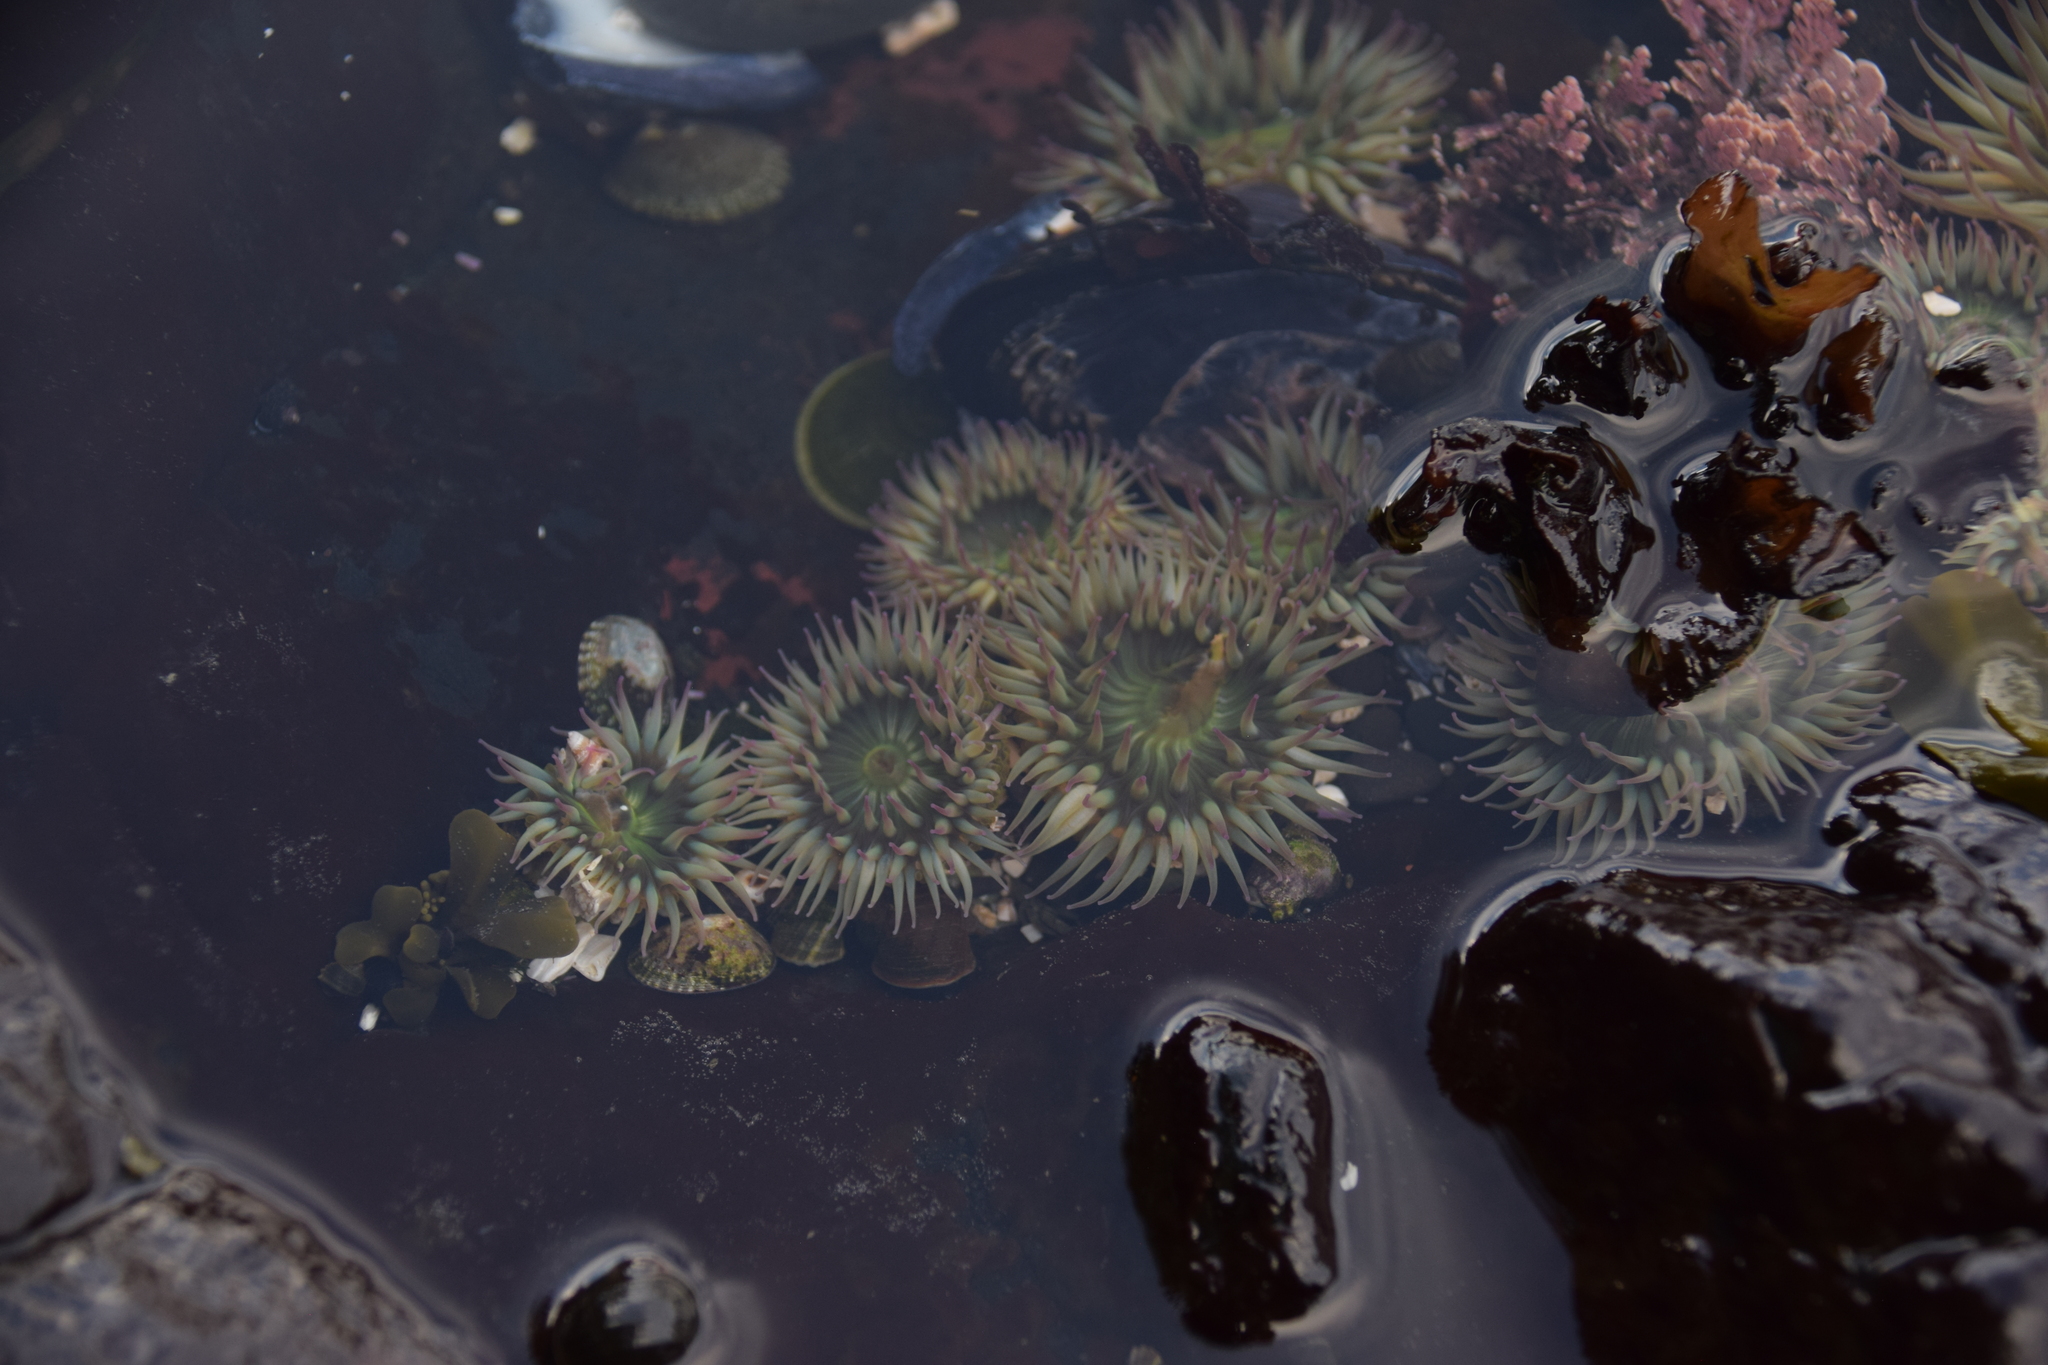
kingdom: Animalia
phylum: Cnidaria
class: Anthozoa
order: Actiniaria
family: Actiniidae
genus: Anthopleura
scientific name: Anthopleura elegantissima
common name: Clonal anemone
